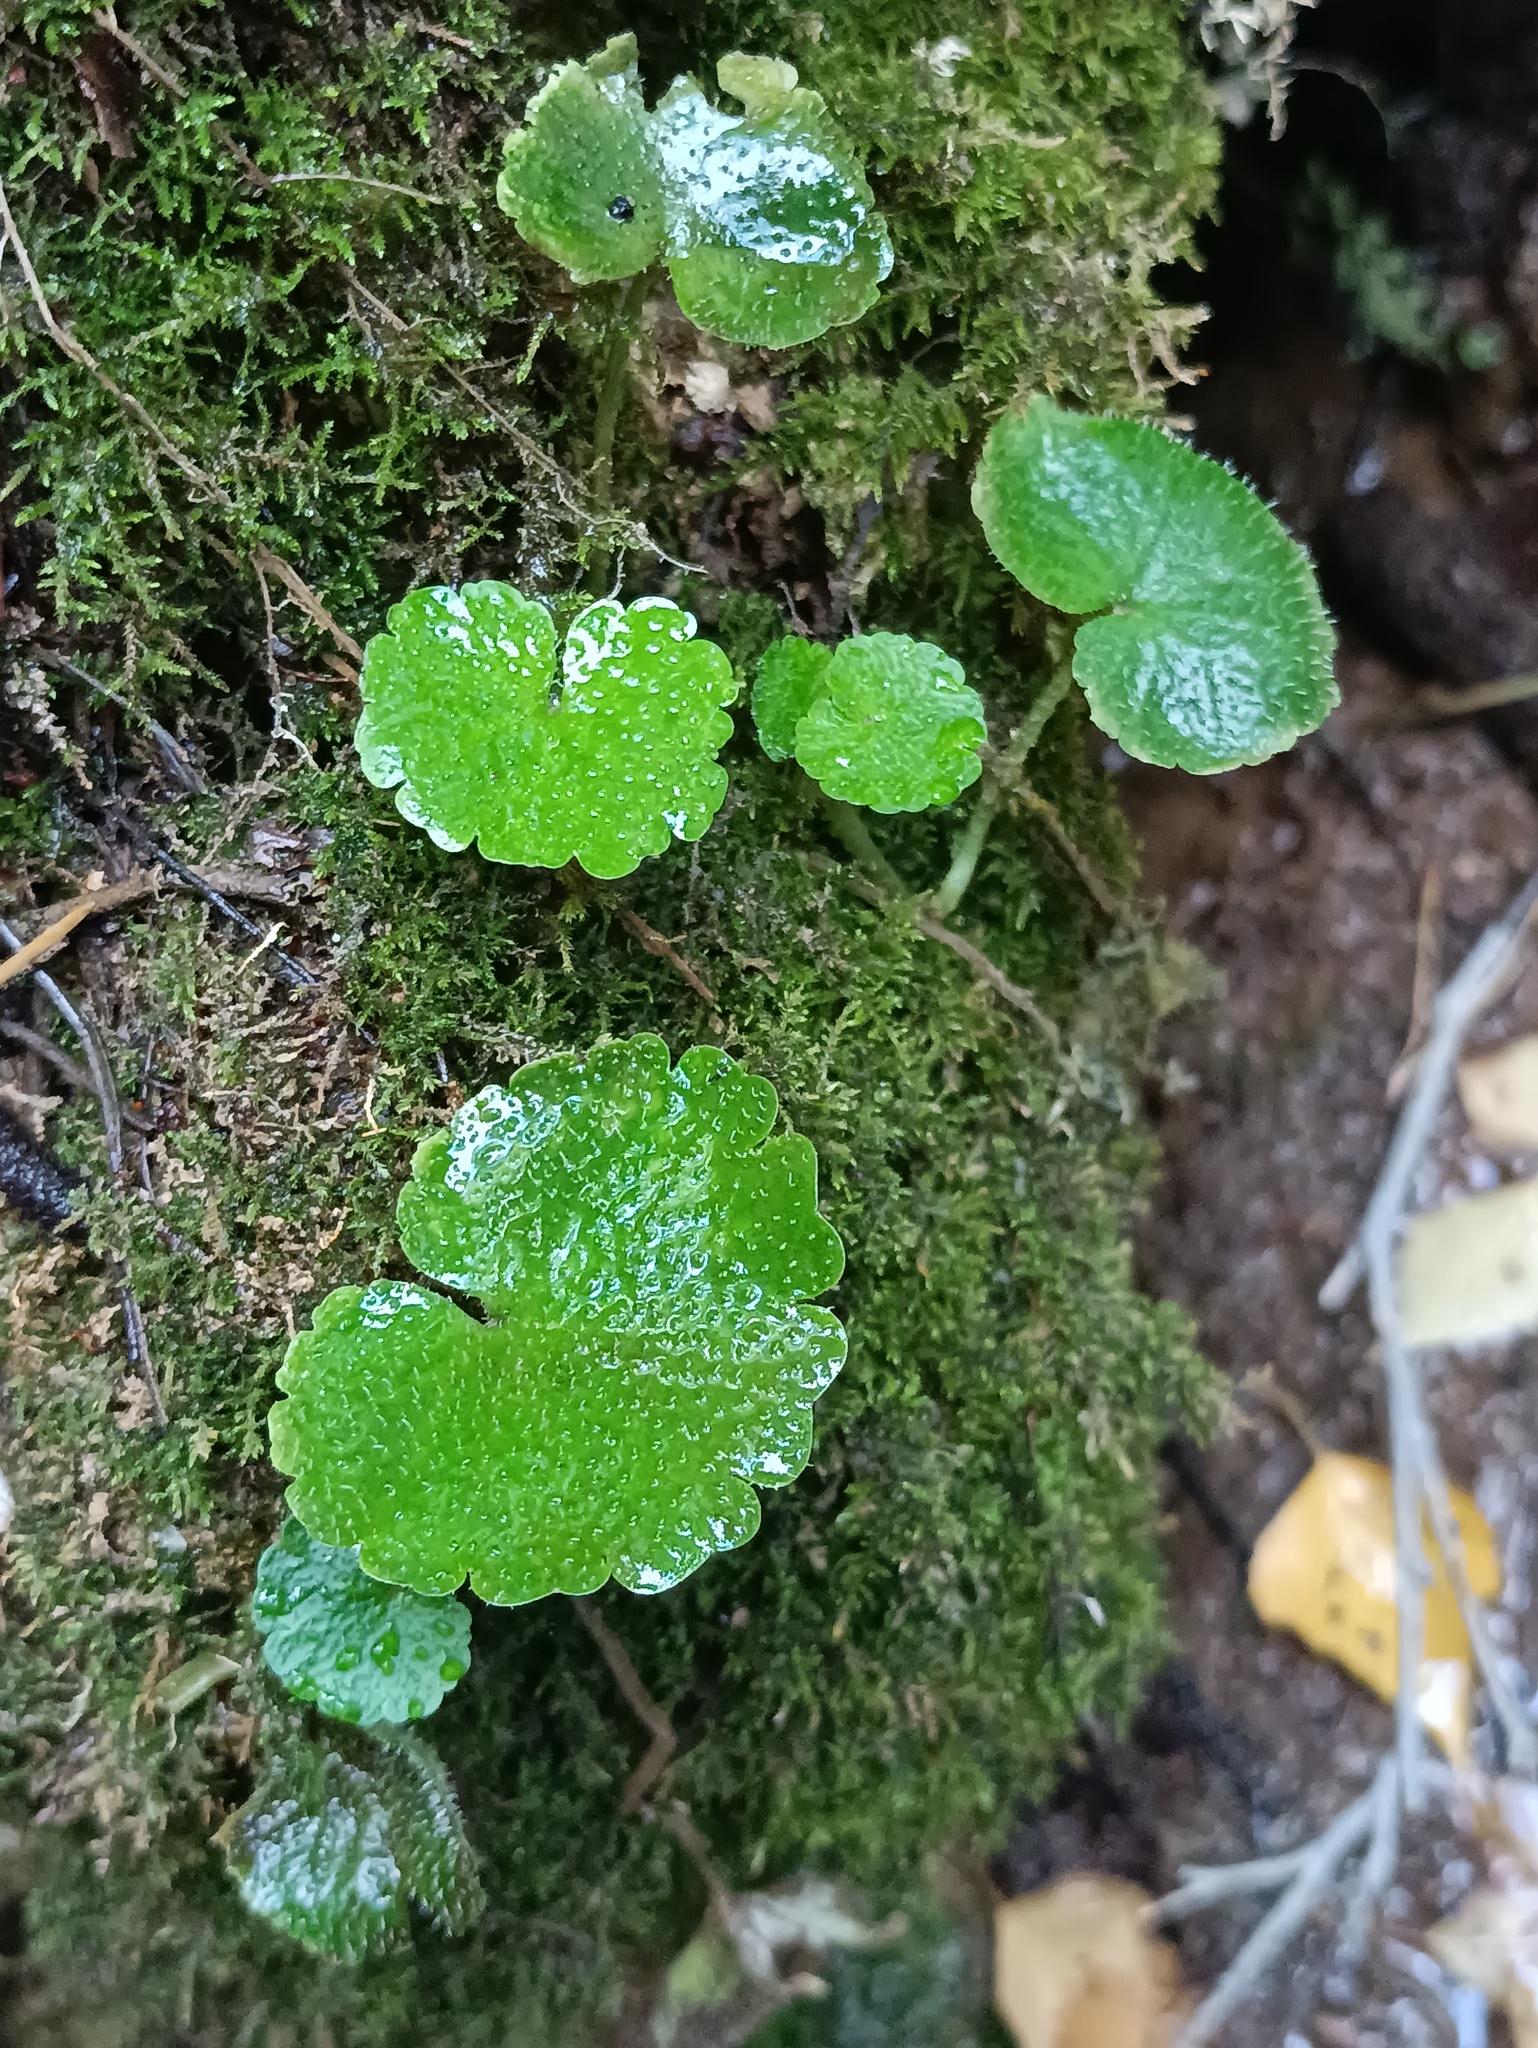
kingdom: Plantae
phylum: Tracheophyta
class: Magnoliopsida
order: Saxifragales
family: Saxifragaceae
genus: Chrysosplenium
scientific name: Chrysosplenium alternifolium
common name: Alternate-leaved golden-saxifrage
